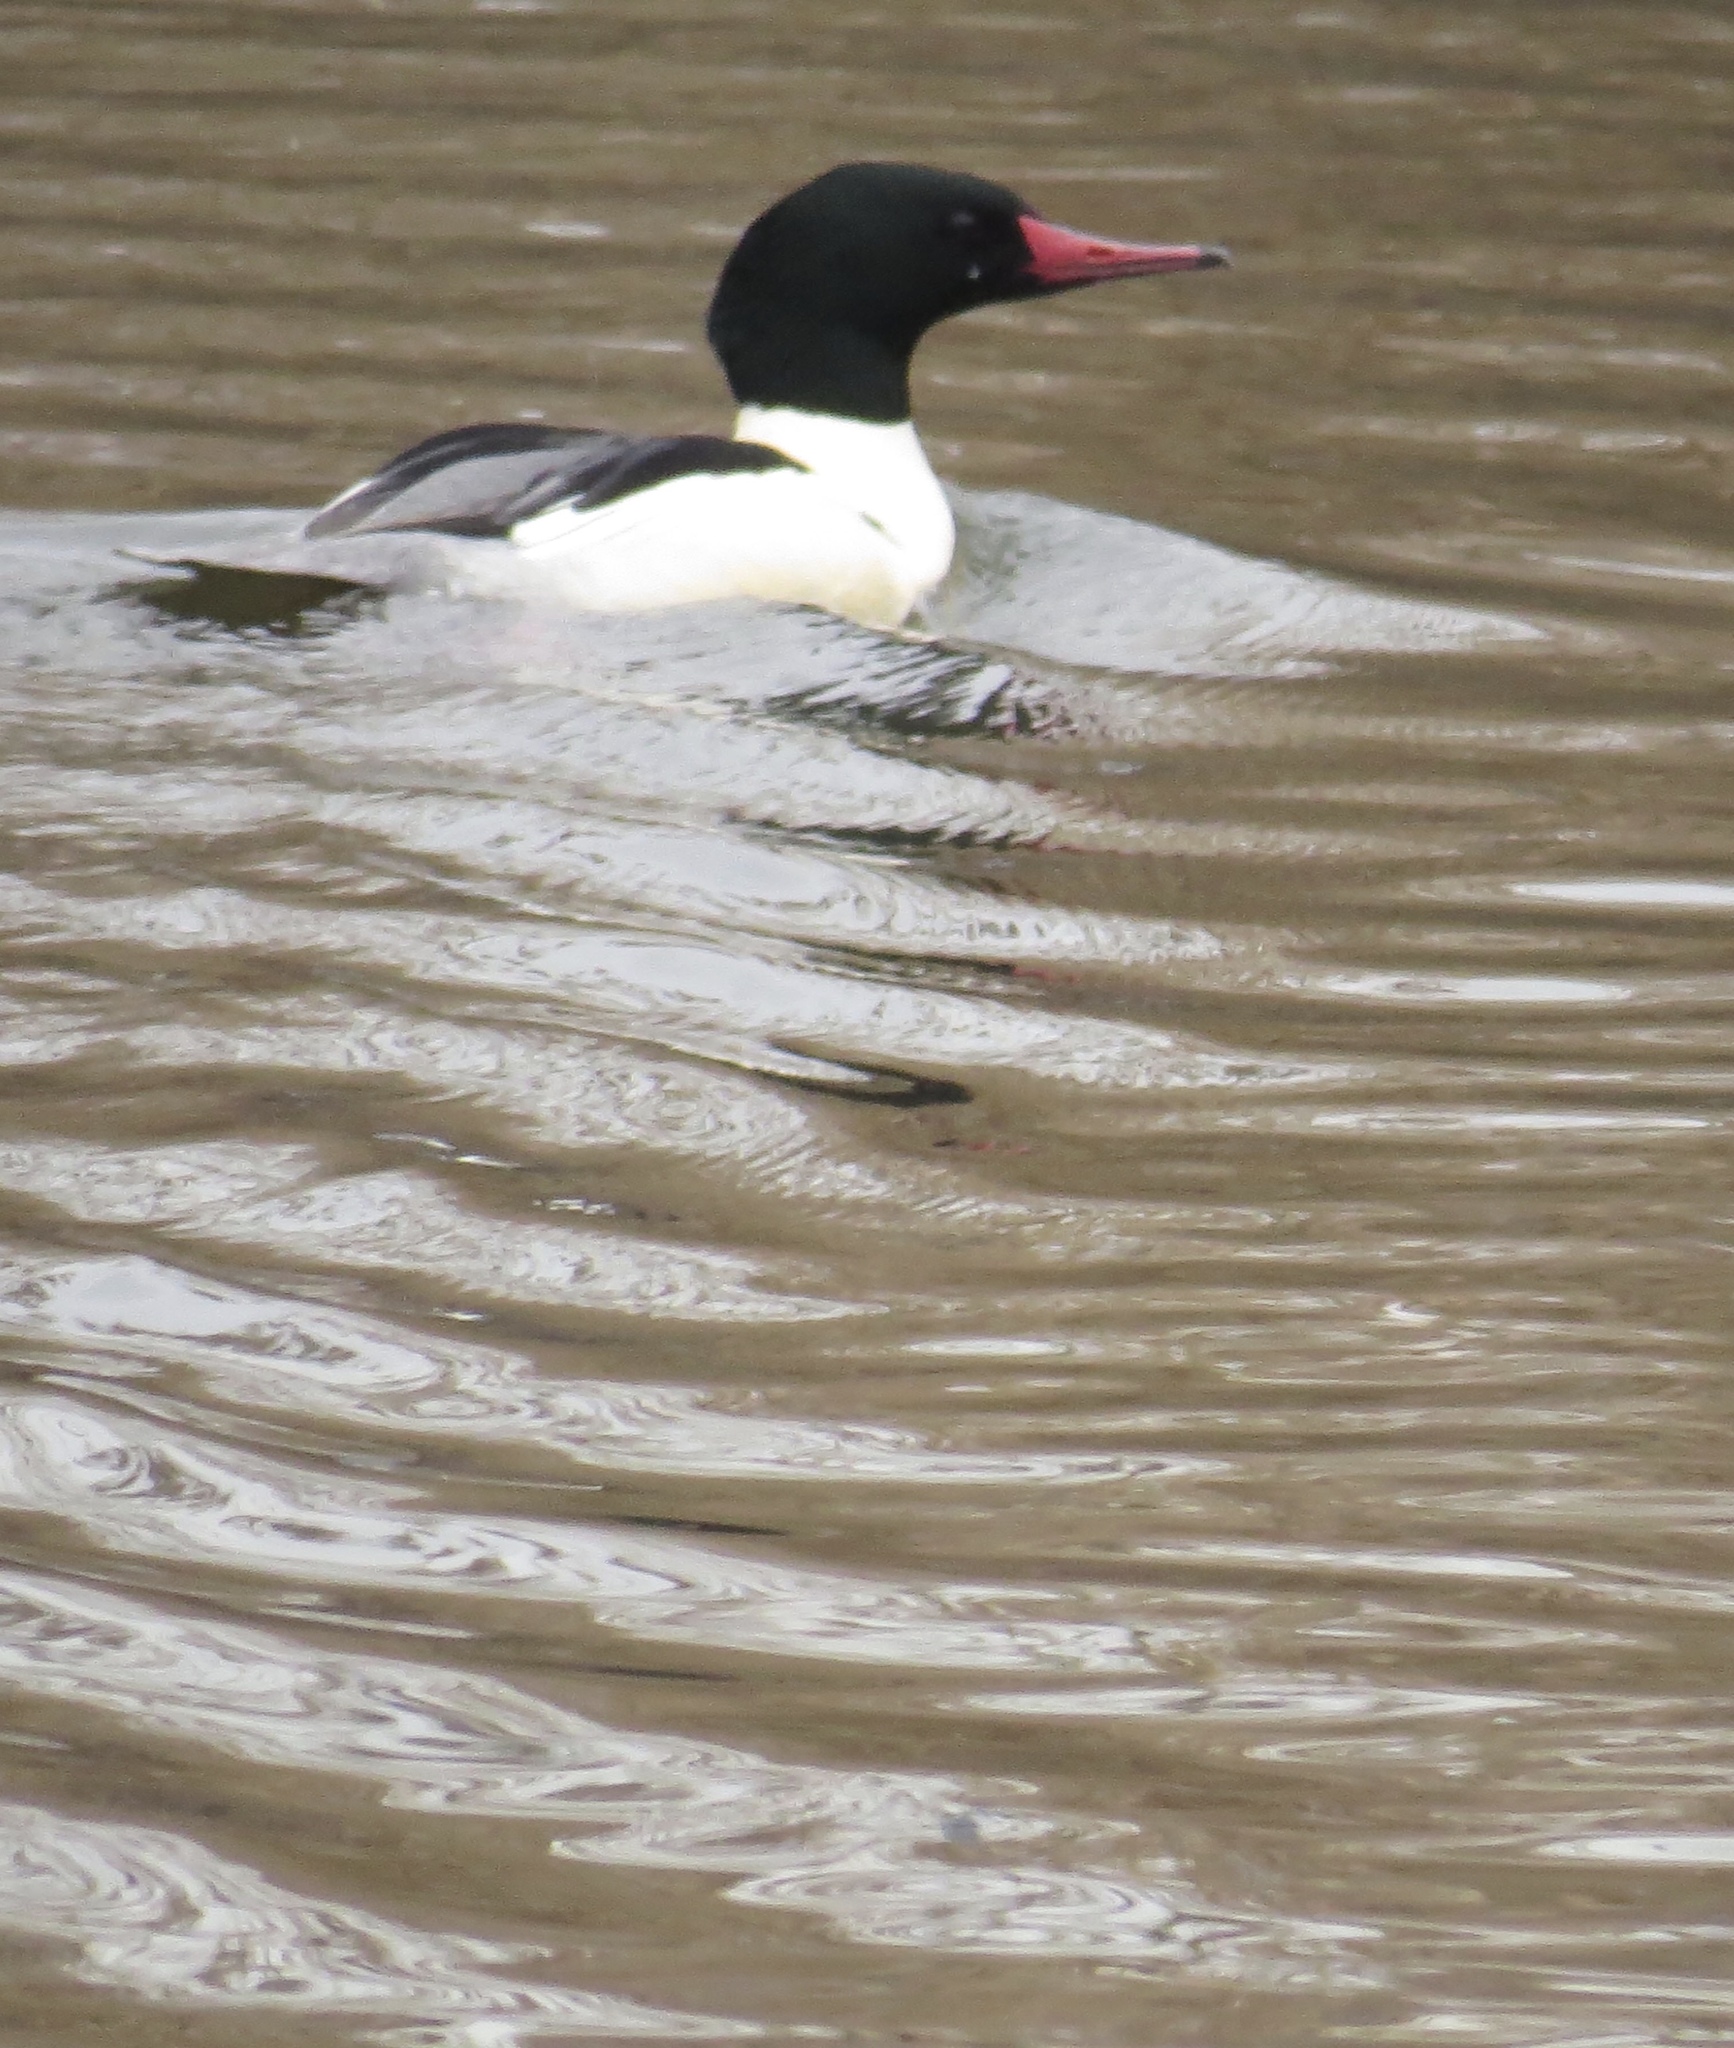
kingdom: Animalia
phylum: Chordata
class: Aves
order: Anseriformes
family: Anatidae
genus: Mergus
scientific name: Mergus merganser
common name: Common merganser
